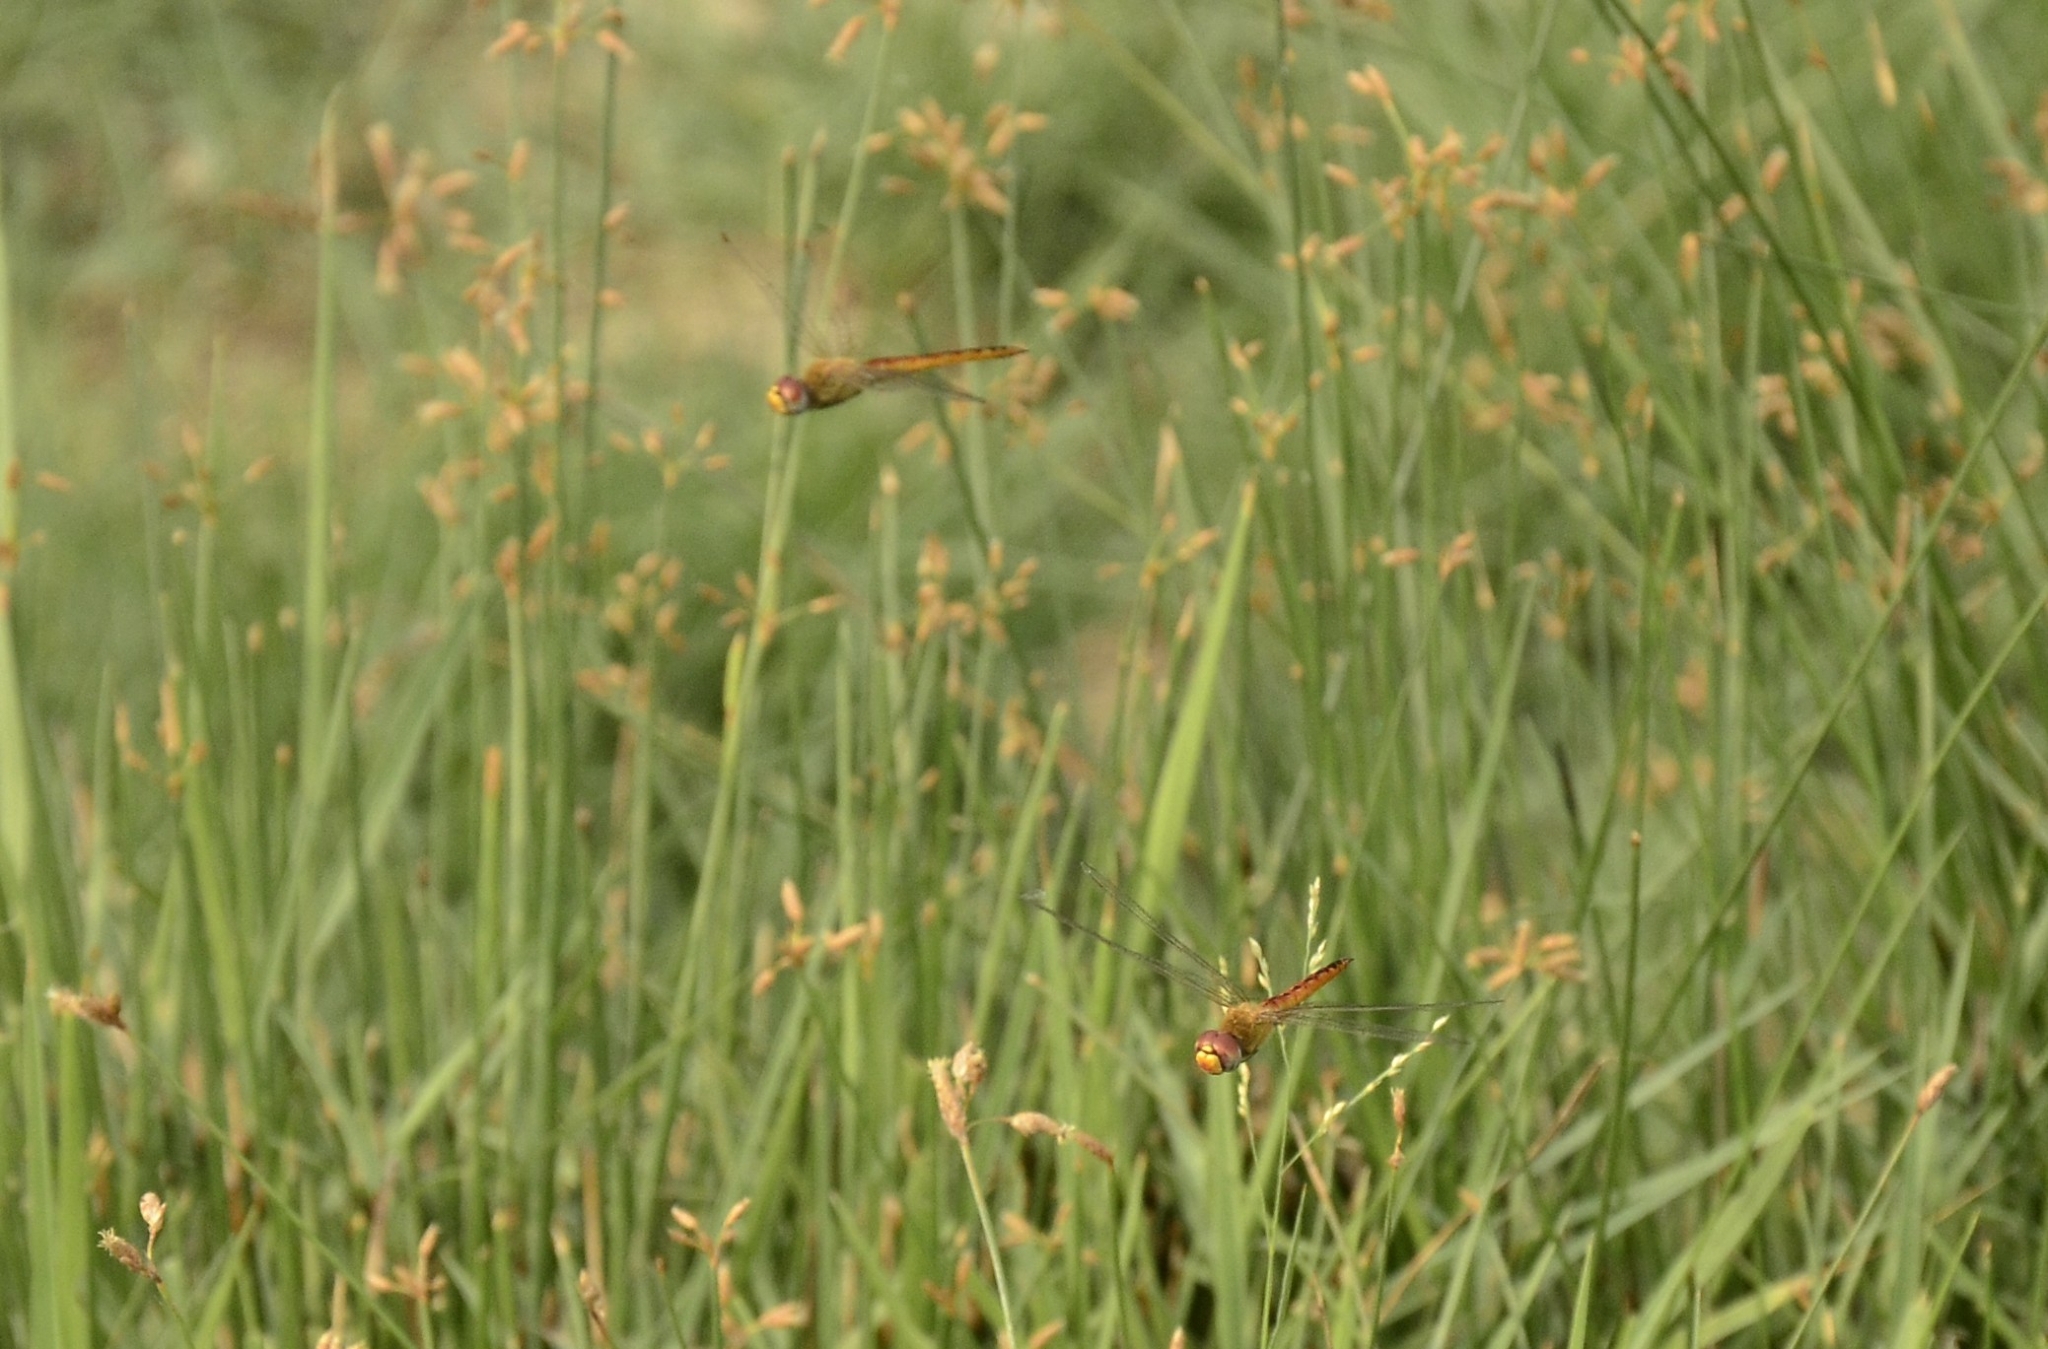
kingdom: Animalia
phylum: Arthropoda
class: Insecta
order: Odonata
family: Libellulidae
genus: Pantala
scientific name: Pantala flavescens
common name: Wandering glider
